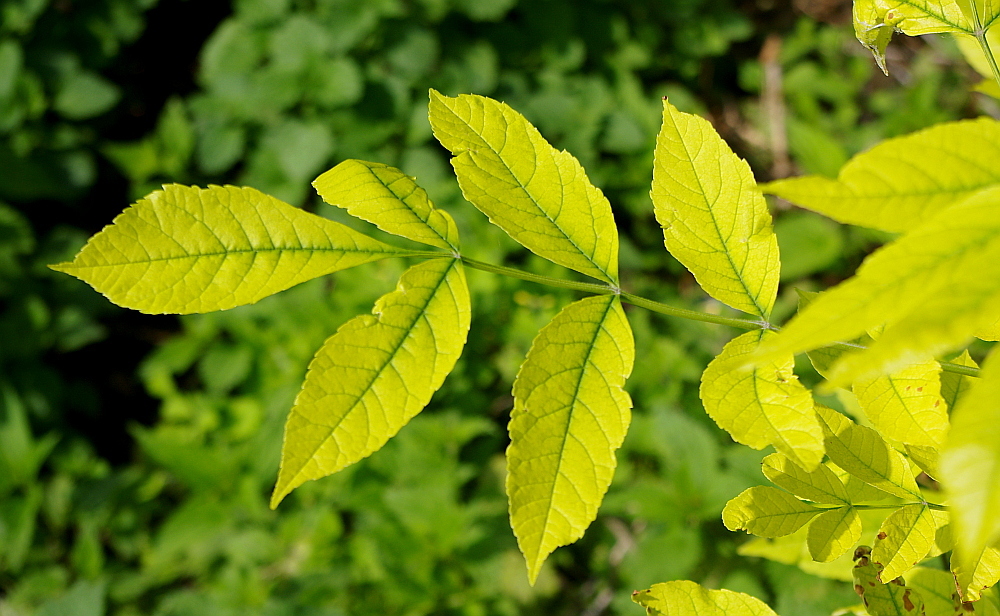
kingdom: Plantae
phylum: Tracheophyta
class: Magnoliopsida
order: Lamiales
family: Oleaceae
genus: Fraxinus
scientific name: Fraxinus pennsylvanica
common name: Green ash
